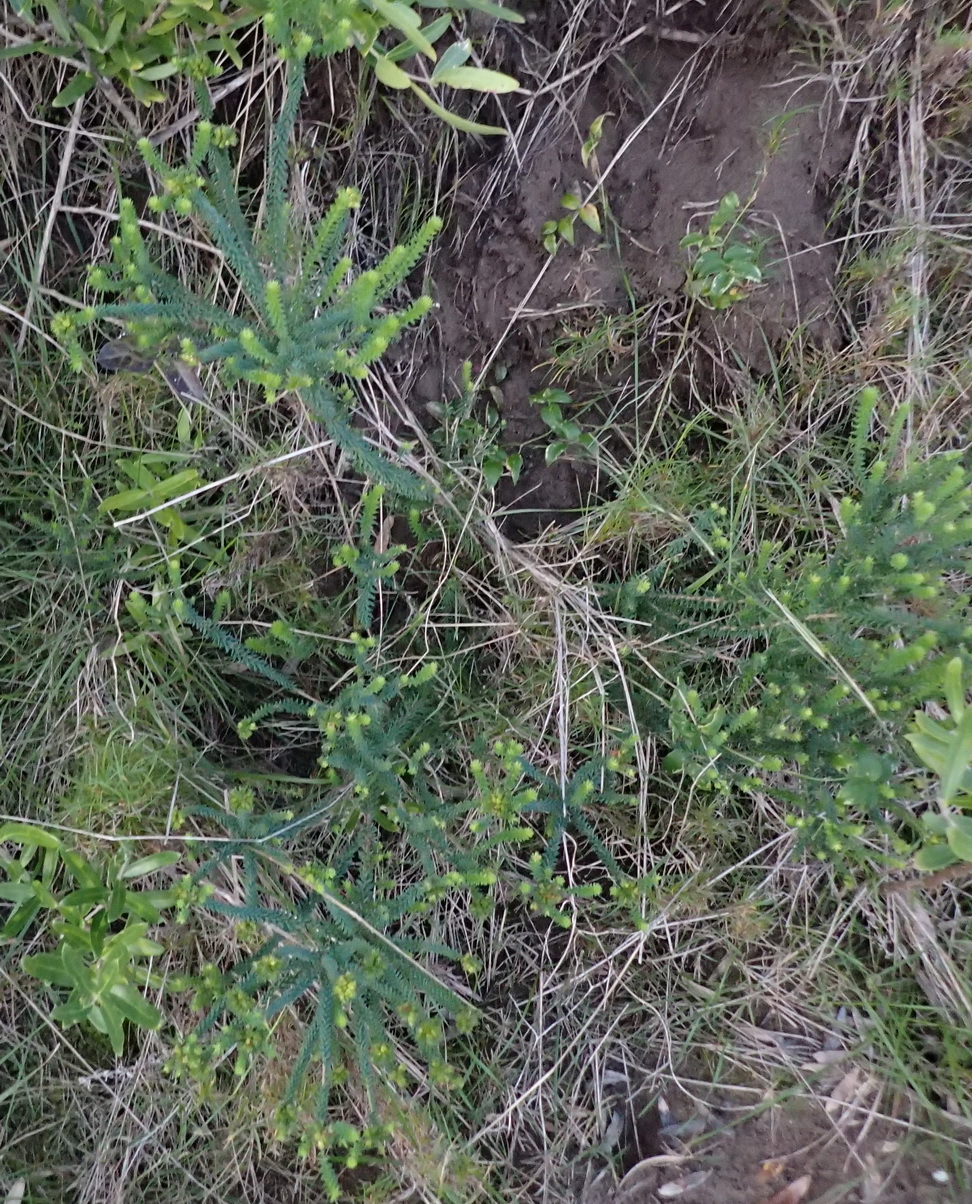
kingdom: Plantae
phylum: Tracheophyta
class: Magnoliopsida
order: Sapindales
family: Rutaceae
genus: Agathosma
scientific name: Agathosma apiculata
